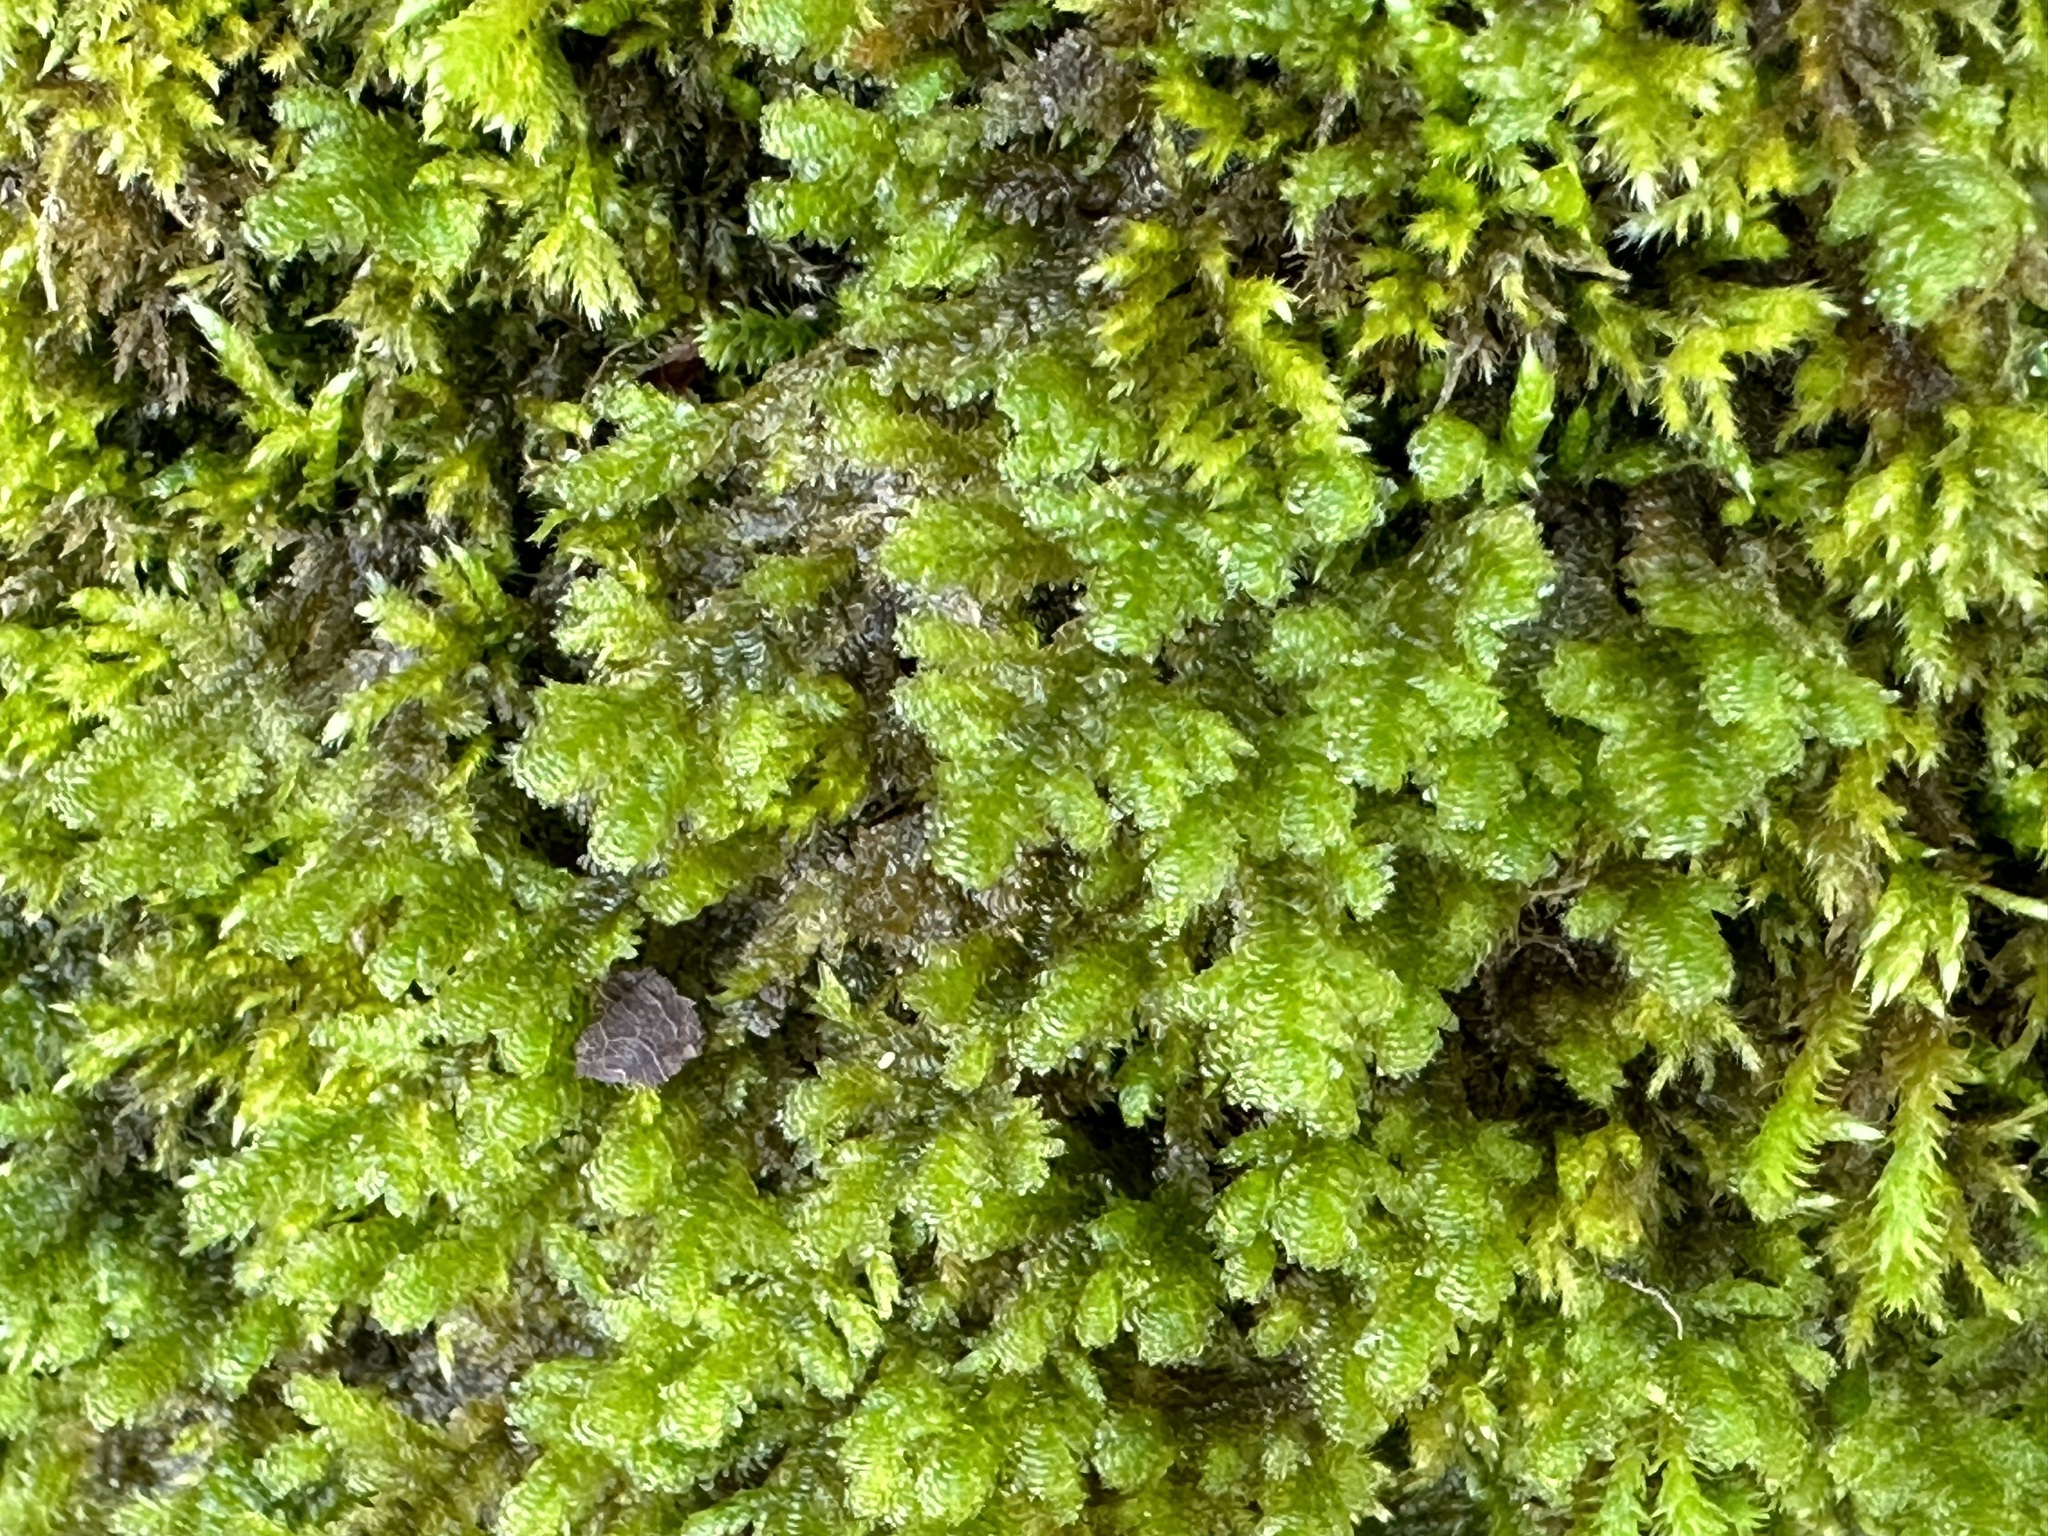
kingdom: Plantae
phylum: Bryophyta
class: Bryopsida
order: Hypnales
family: Neckeraceae
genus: Exsertotheca
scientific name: Exsertotheca crispa
